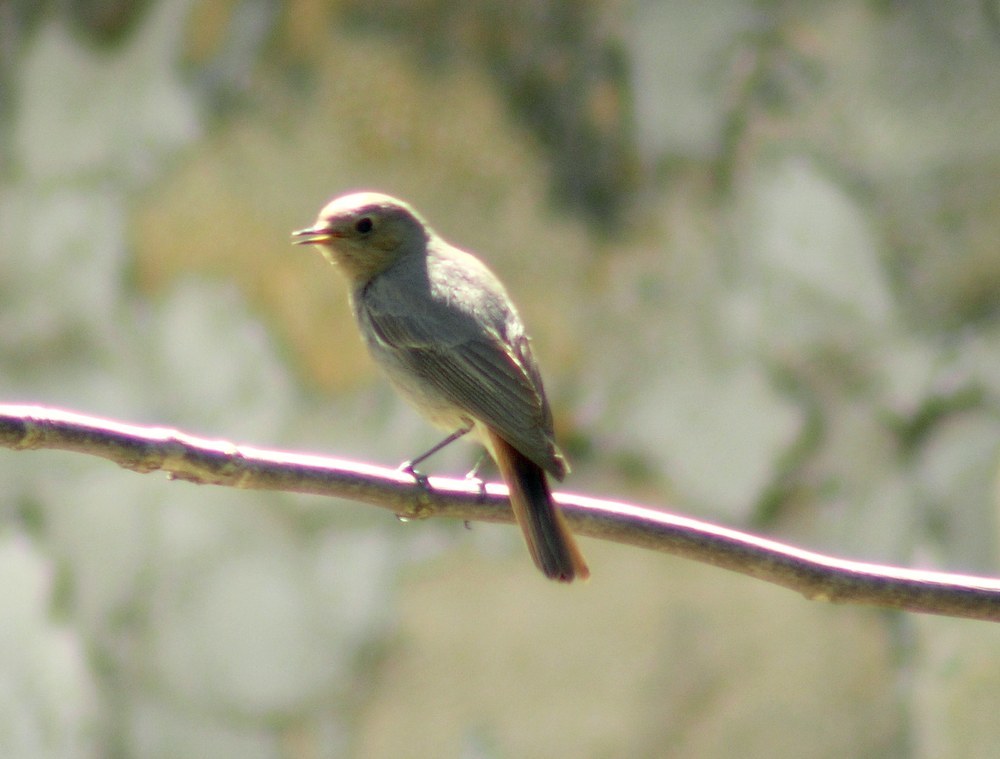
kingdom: Animalia
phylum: Chordata
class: Aves
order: Passeriformes
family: Muscicapidae
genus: Phoenicurus
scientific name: Phoenicurus ochruros
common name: Black redstart
